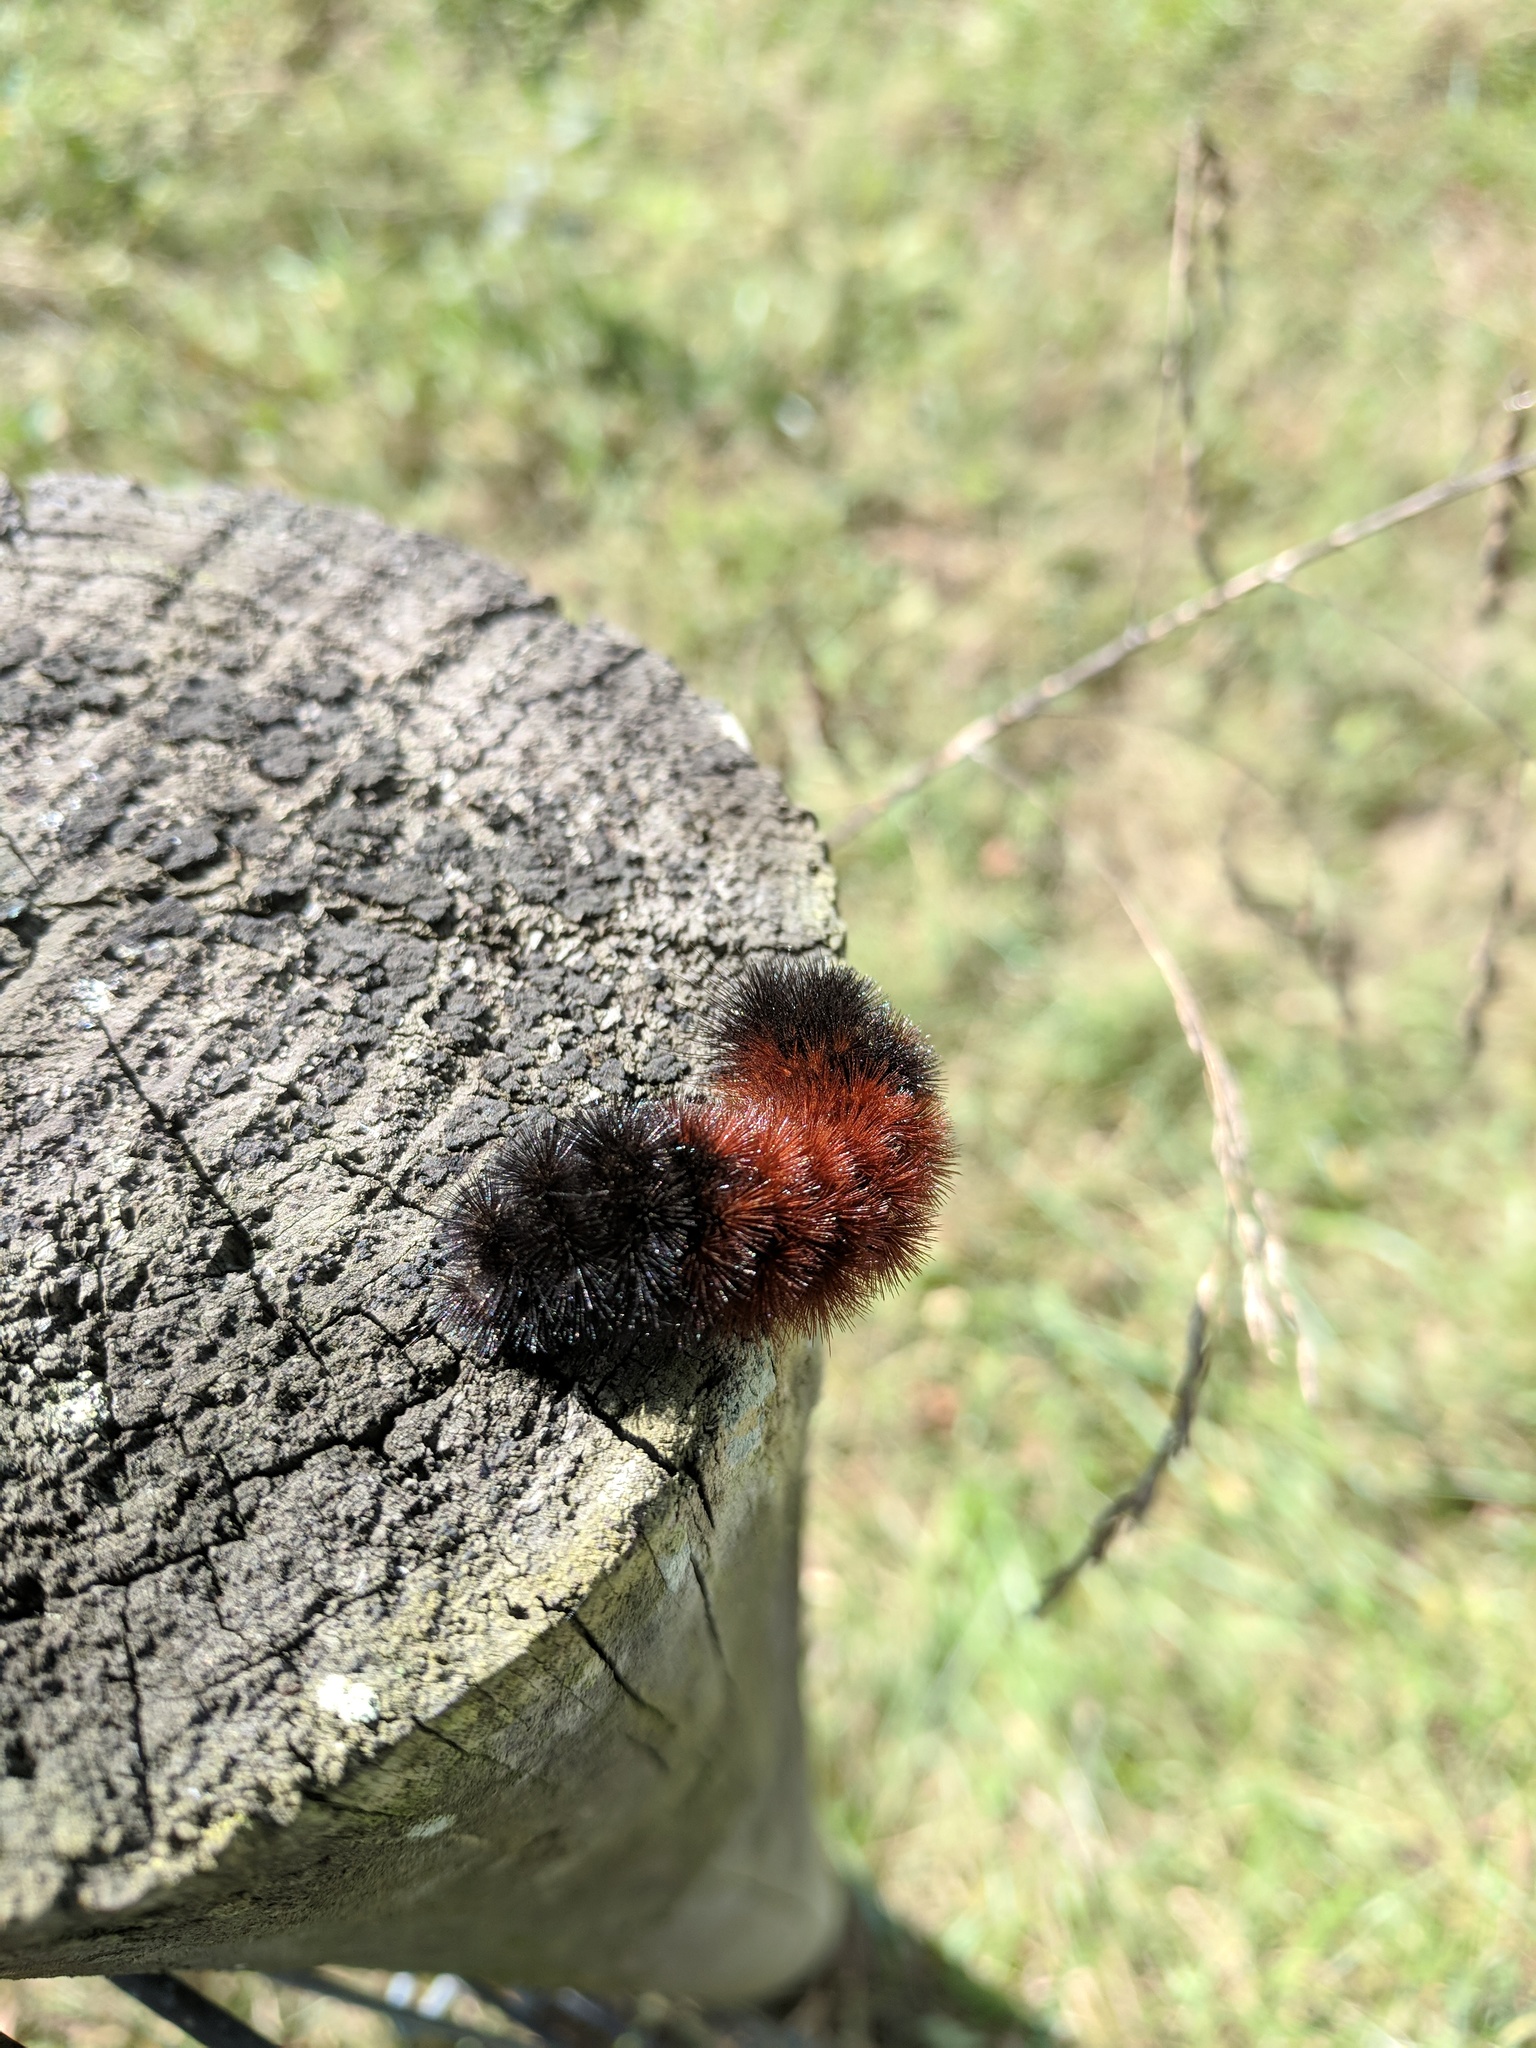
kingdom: Animalia
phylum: Arthropoda
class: Insecta
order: Lepidoptera
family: Erebidae
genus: Pyrrharctia
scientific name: Pyrrharctia isabella
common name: Isabella tiger moth
